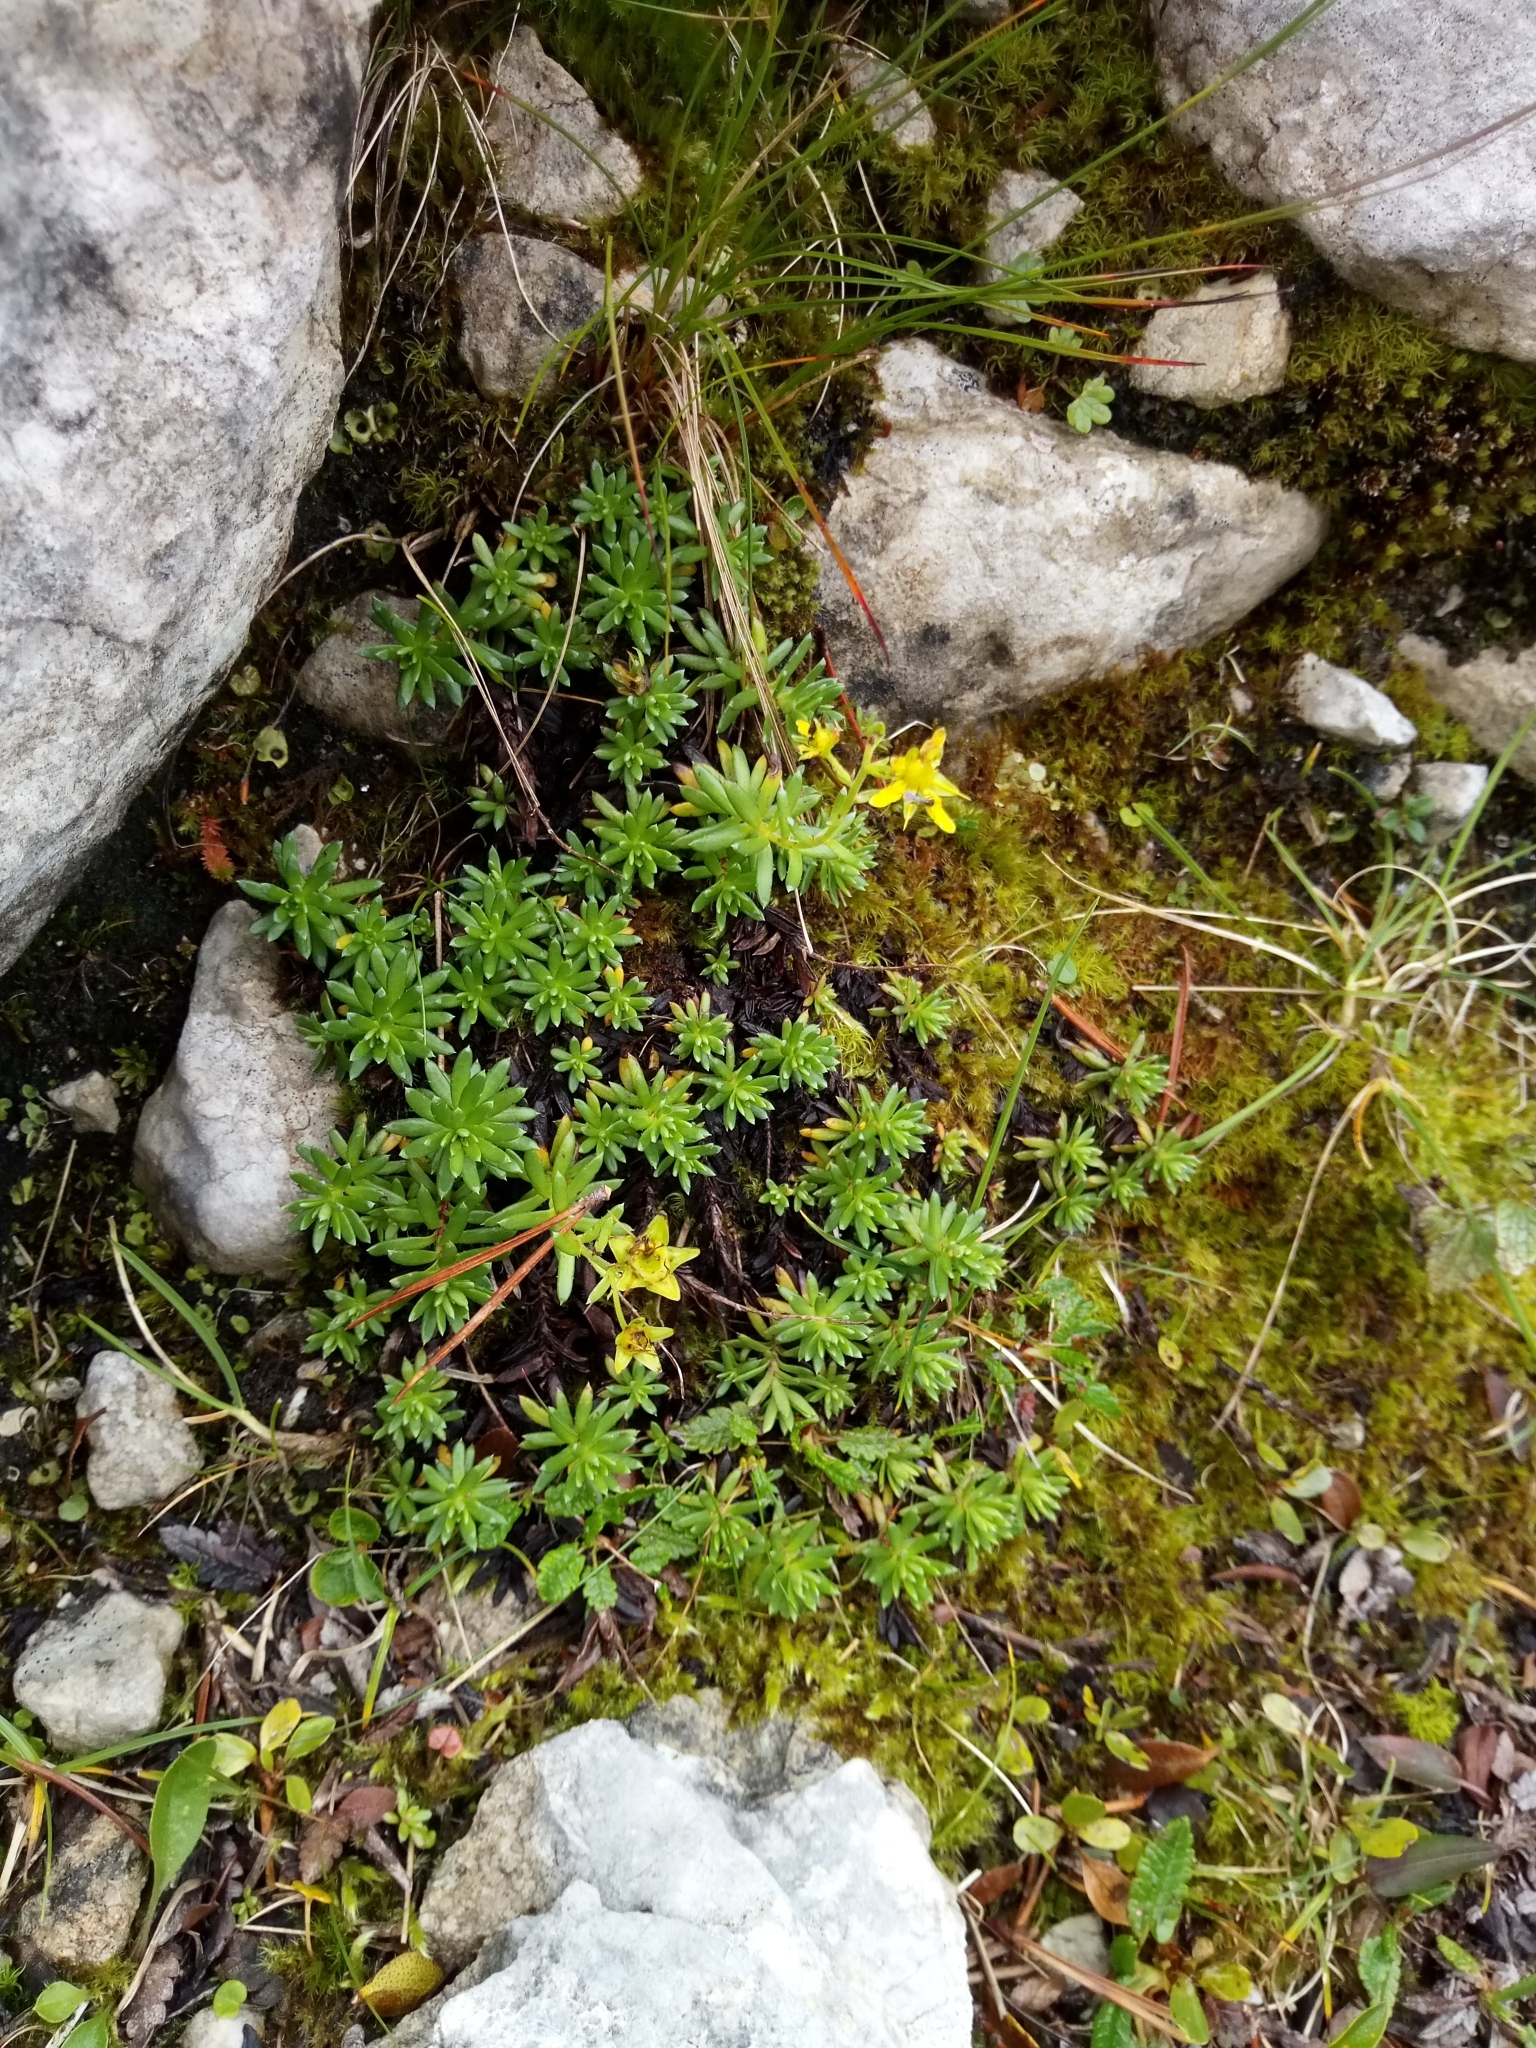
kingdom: Plantae
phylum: Tracheophyta
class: Magnoliopsida
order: Saxifragales
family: Saxifragaceae
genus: Saxifraga
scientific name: Saxifraga aizoides
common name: Yellow mountain saxifrage
